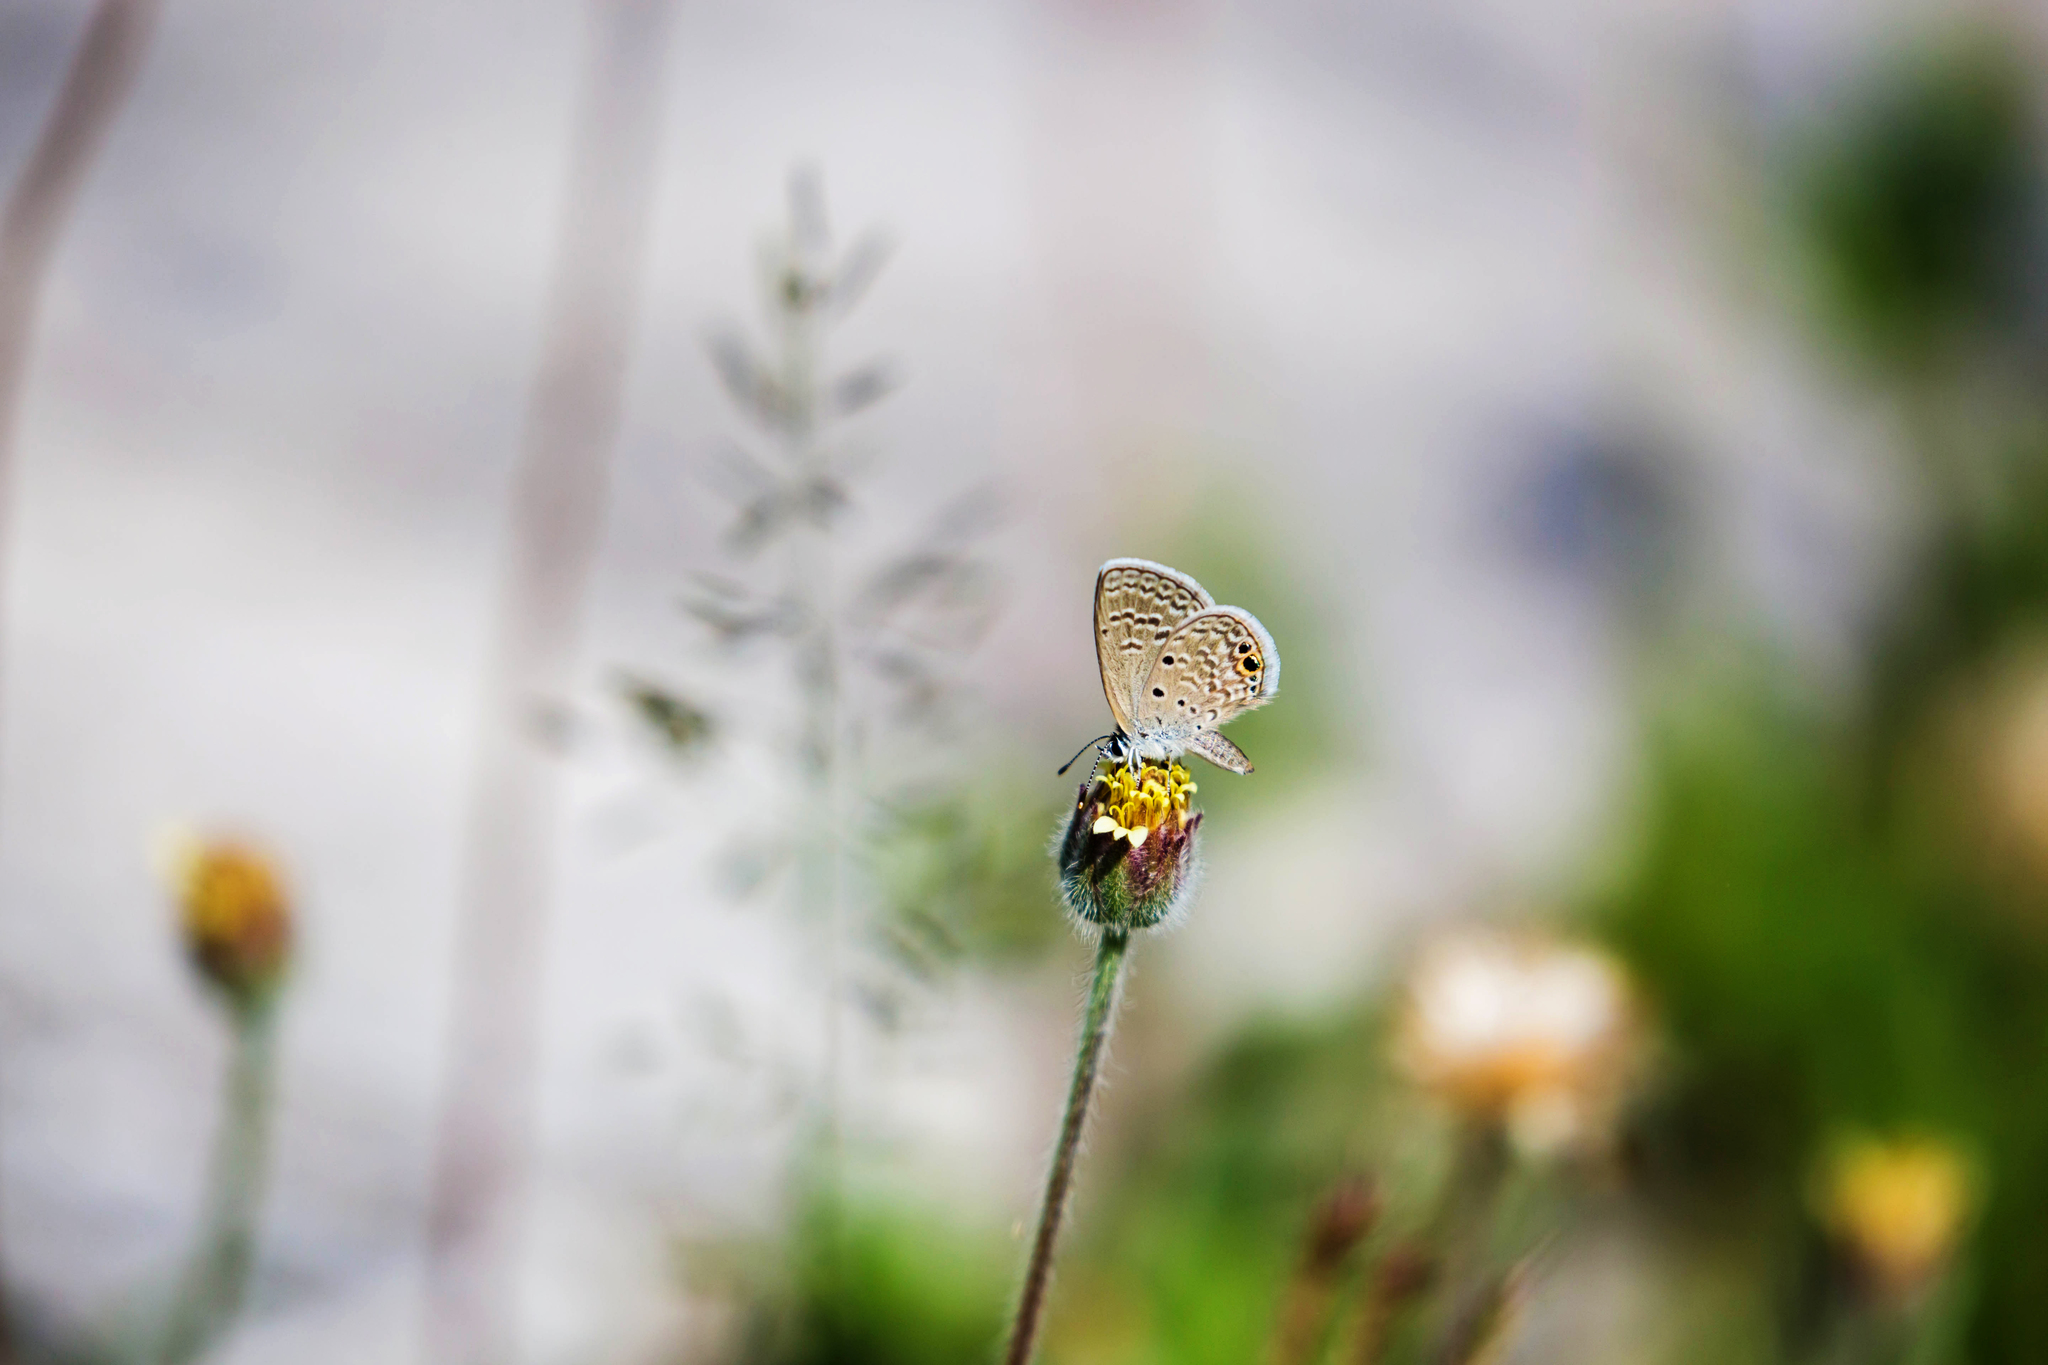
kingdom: Animalia
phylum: Arthropoda
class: Insecta
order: Lepidoptera
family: Lycaenidae
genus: Hemiargus
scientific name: Hemiargus ceraunus
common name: Ceraunus blue
